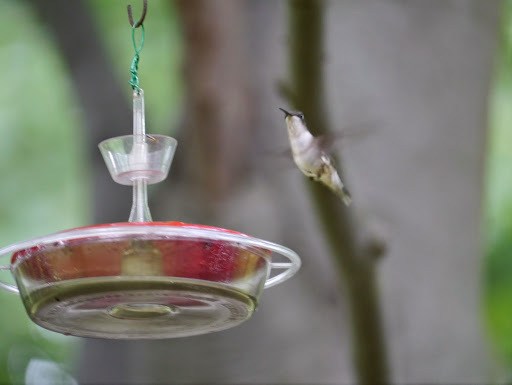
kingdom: Animalia
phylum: Chordata
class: Aves
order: Apodiformes
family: Trochilidae
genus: Archilochus
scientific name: Archilochus colubris
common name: Ruby-throated hummingbird
